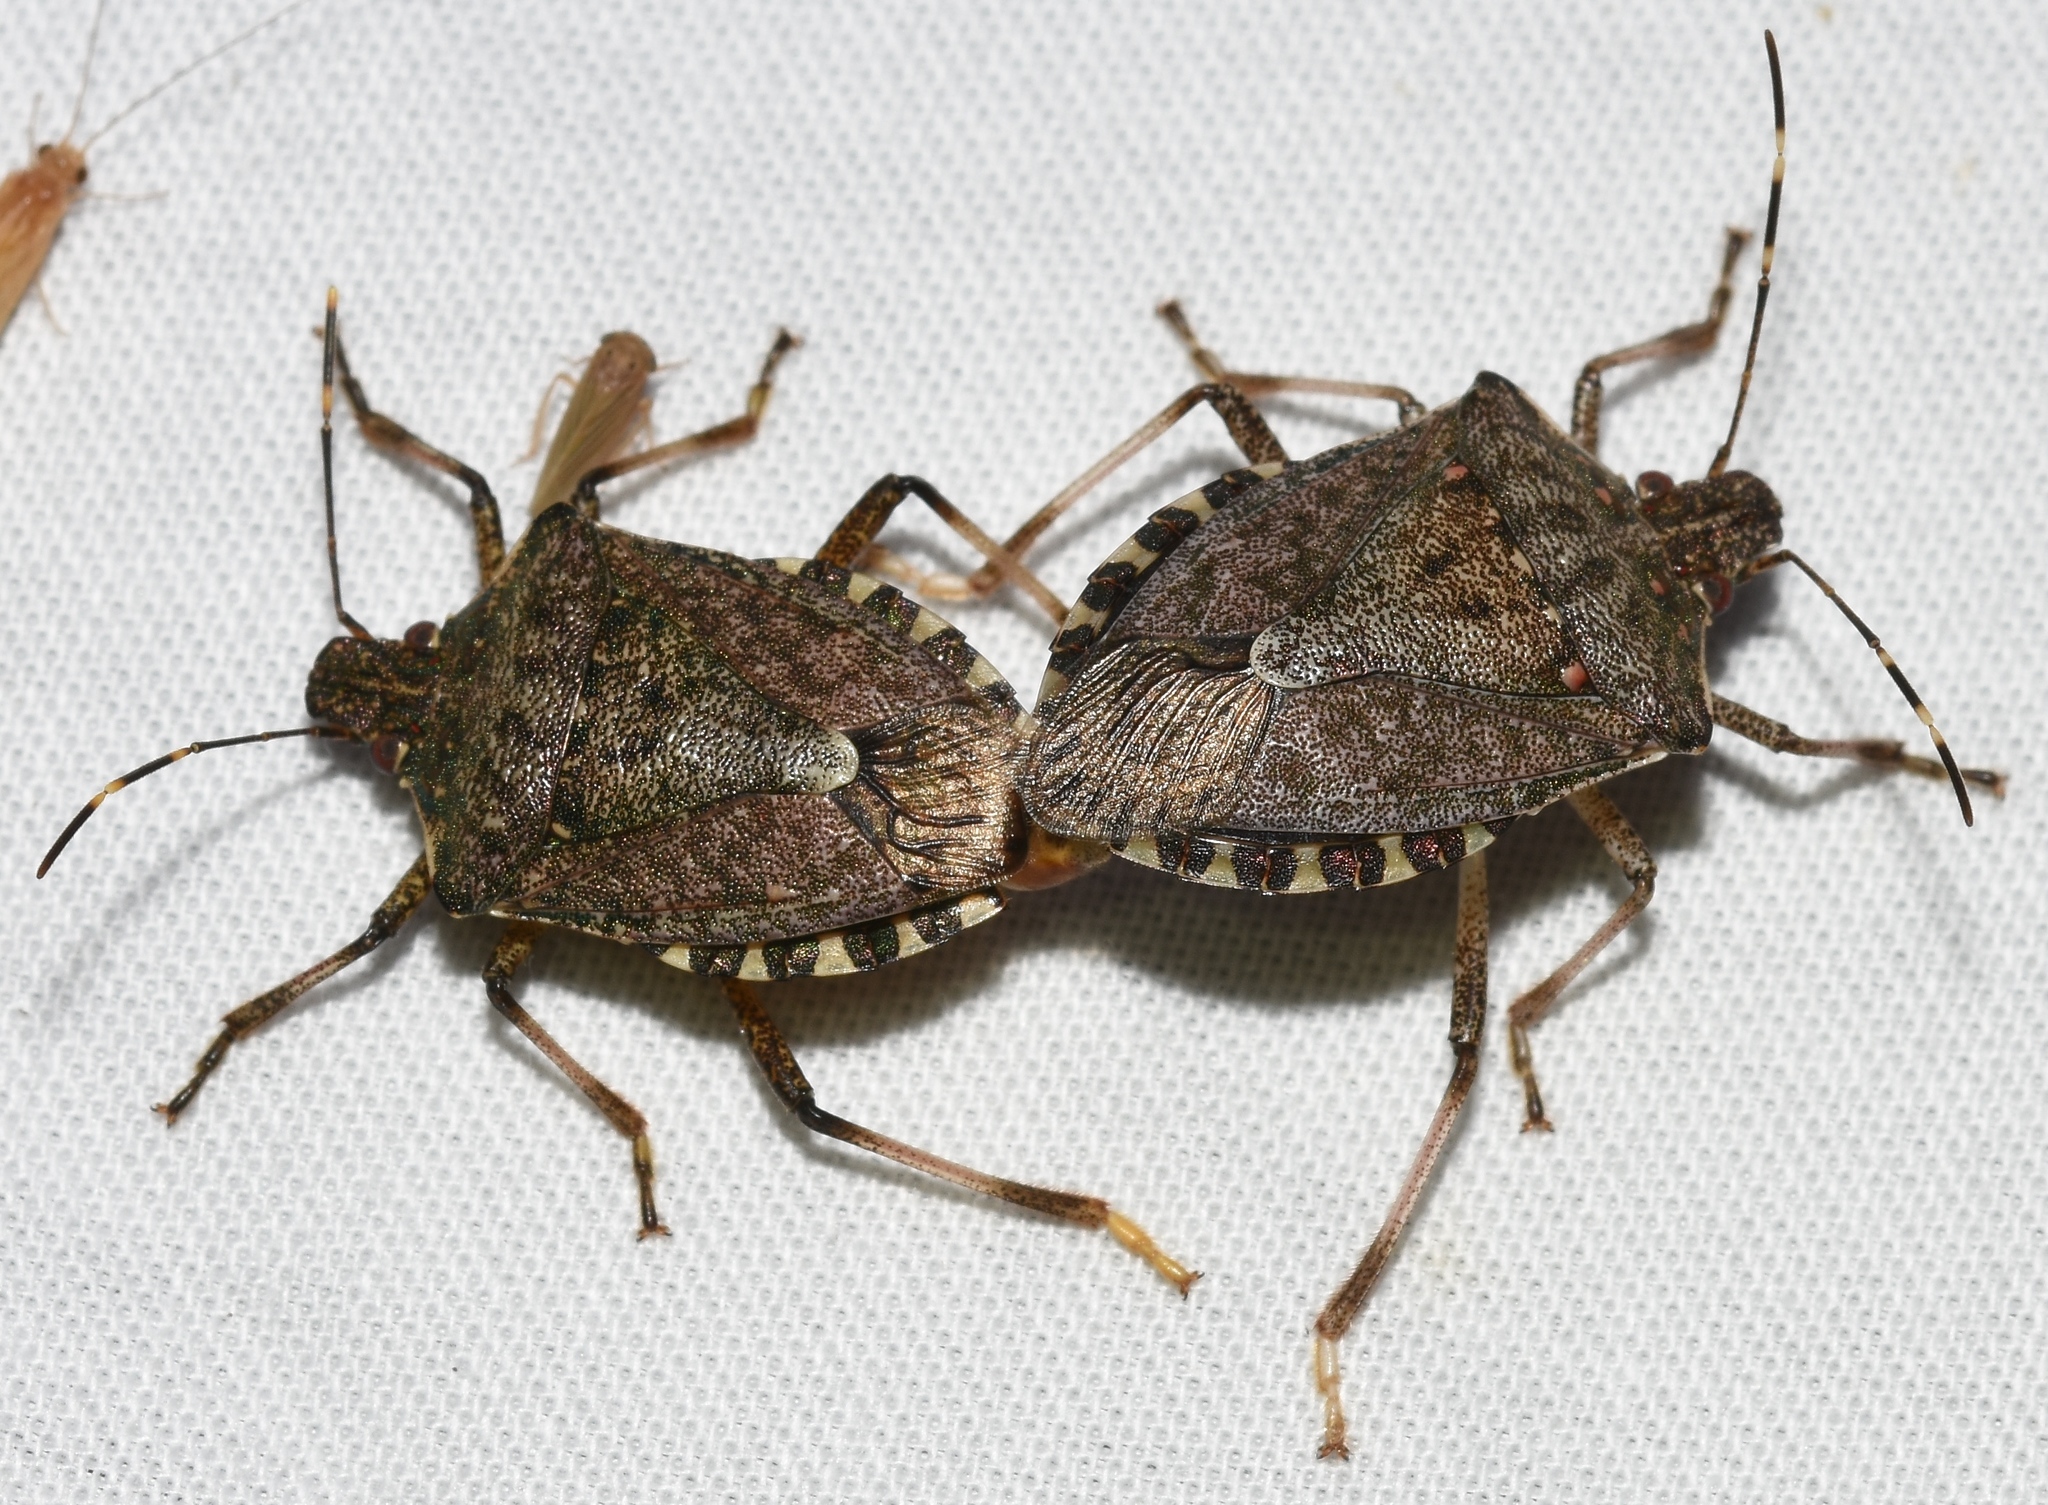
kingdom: Animalia
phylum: Arthropoda
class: Insecta
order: Hemiptera
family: Pentatomidae
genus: Halyomorpha
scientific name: Halyomorpha halys
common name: Brown marmorated stink bug
